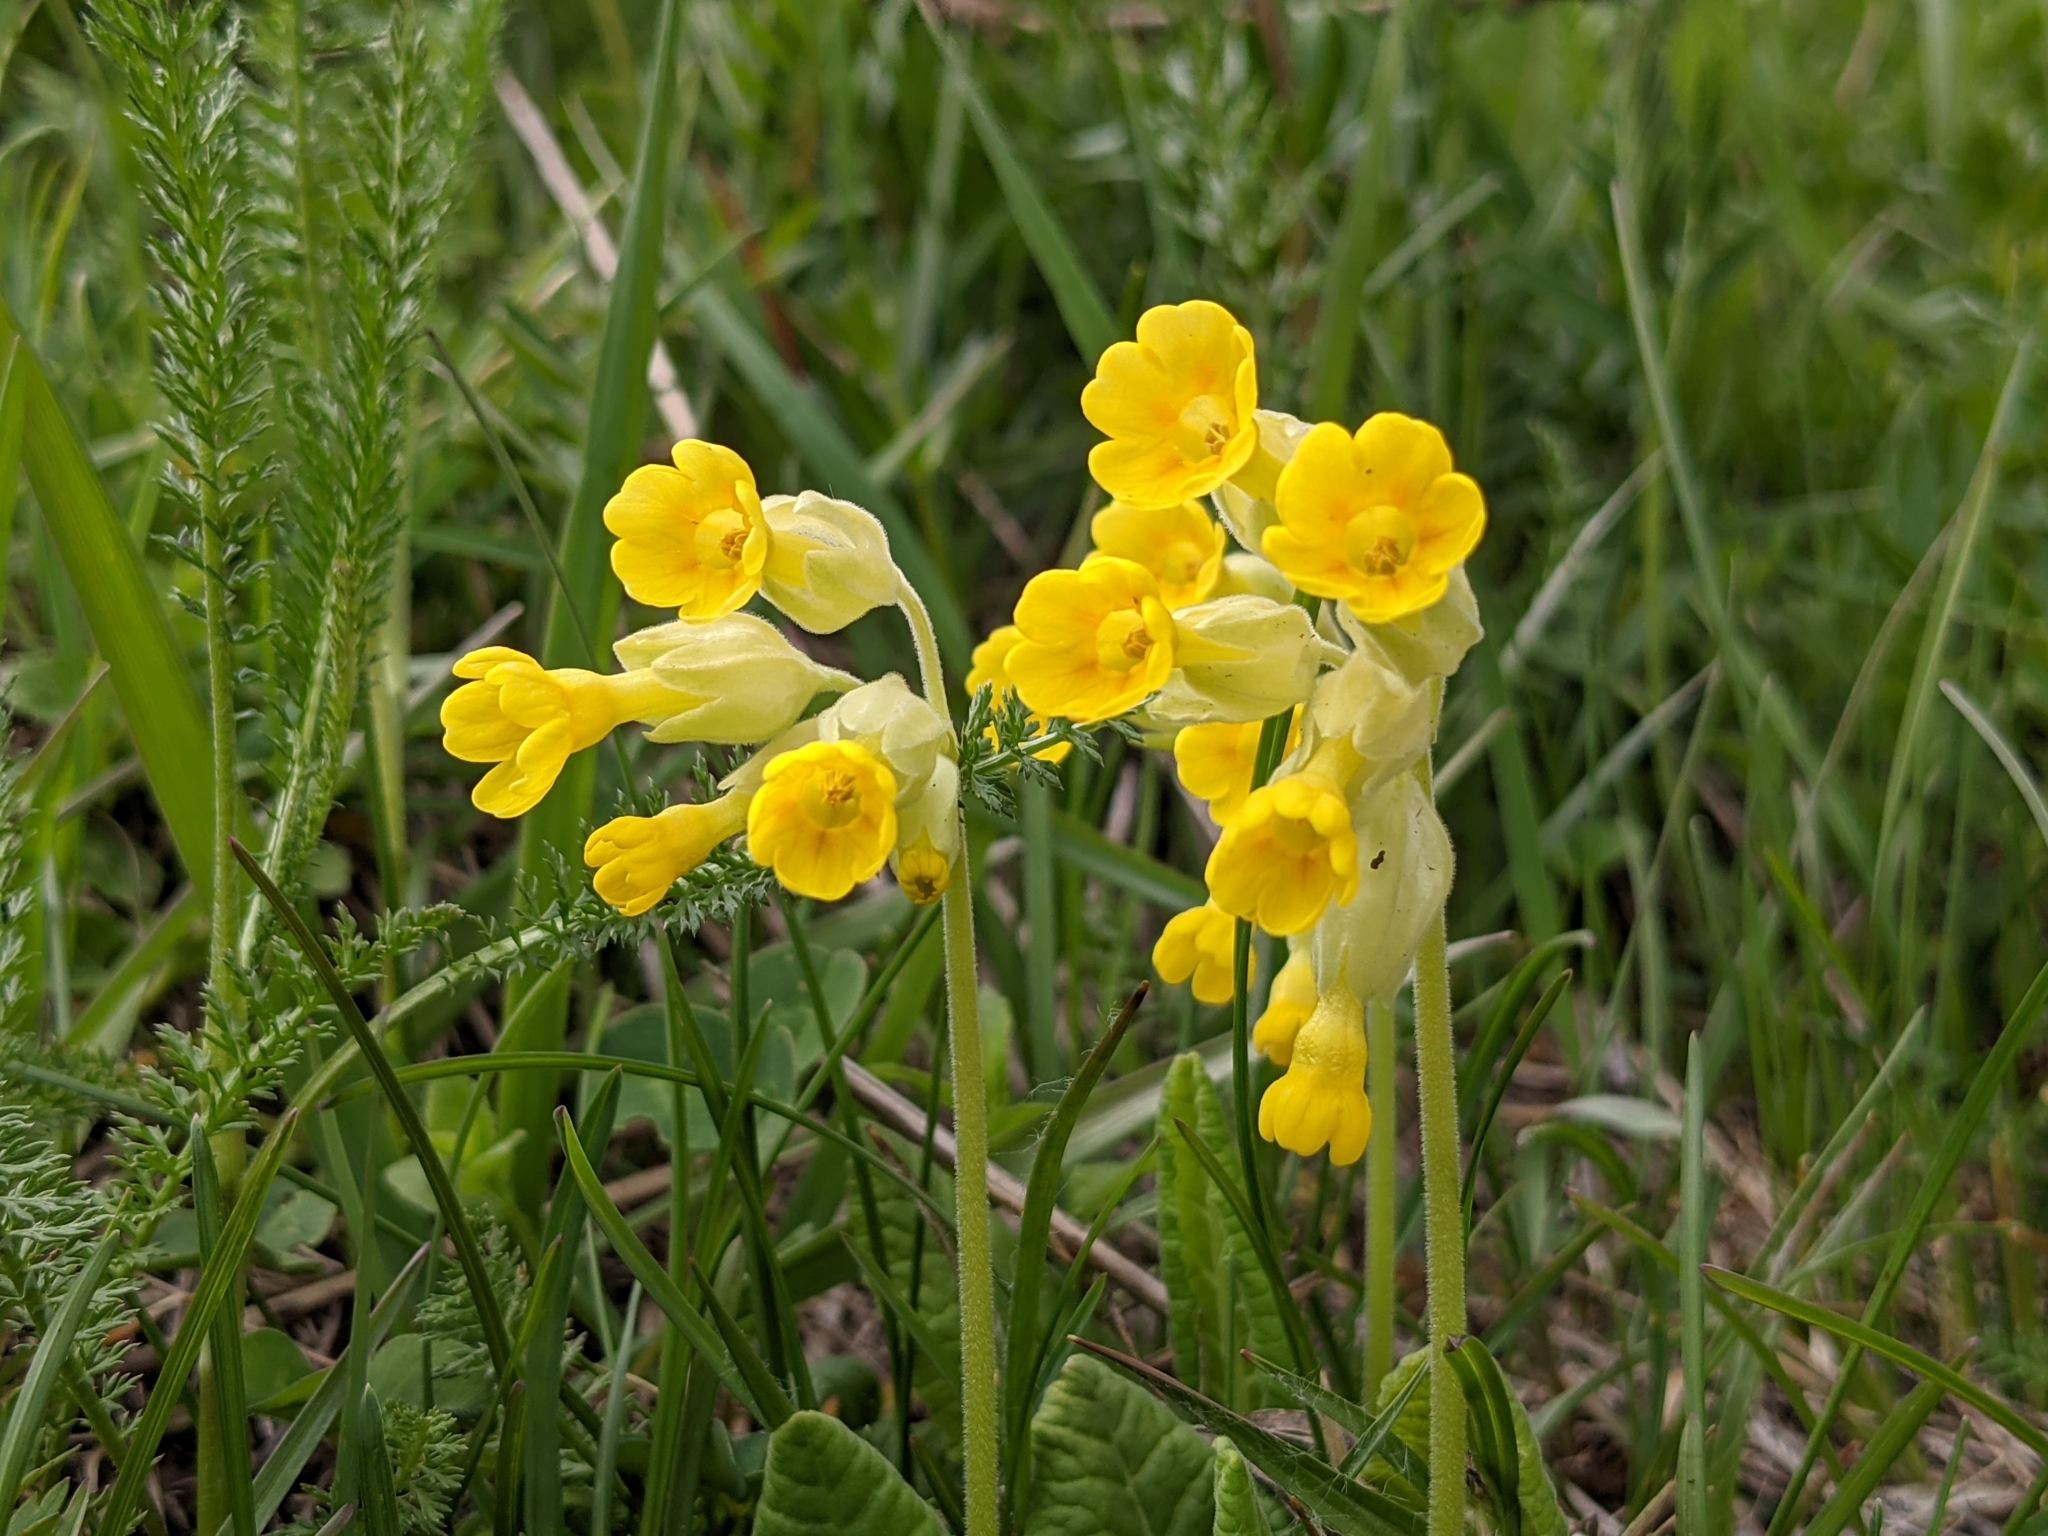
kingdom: Plantae
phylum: Tracheophyta
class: Magnoliopsida
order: Ericales
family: Primulaceae
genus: Primula
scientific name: Primula veris
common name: Cowslip
